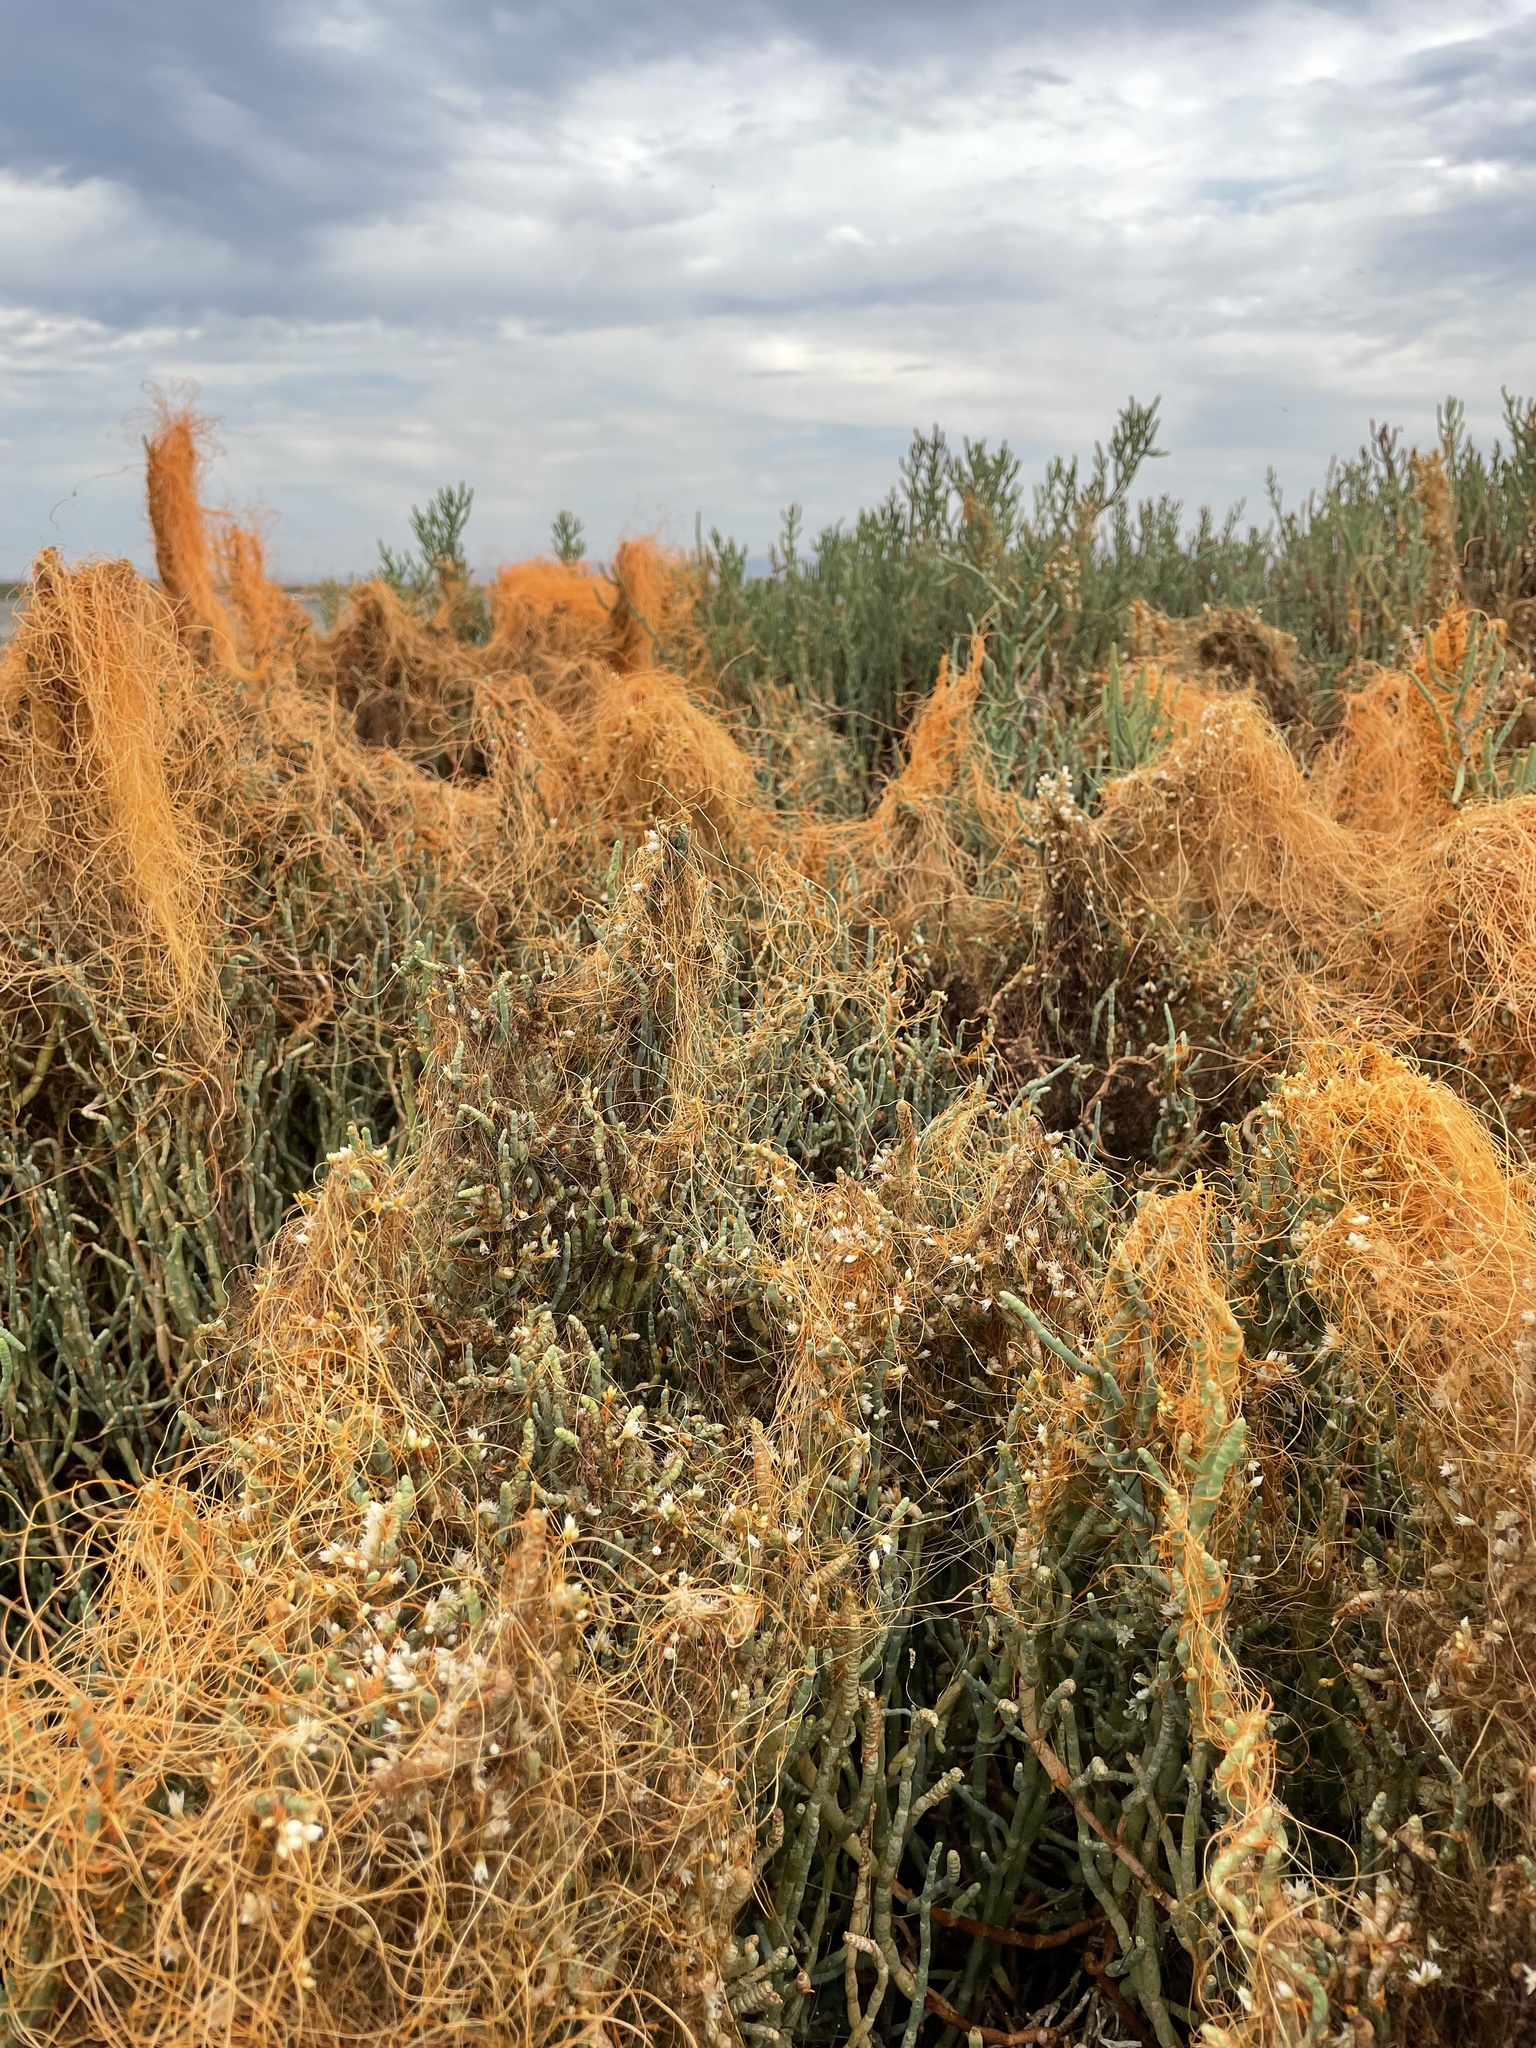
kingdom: Plantae
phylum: Tracheophyta
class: Magnoliopsida
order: Solanales
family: Convolvulaceae
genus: Cuscuta
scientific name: Cuscuta pacifica
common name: Large saltmarsh dodder
